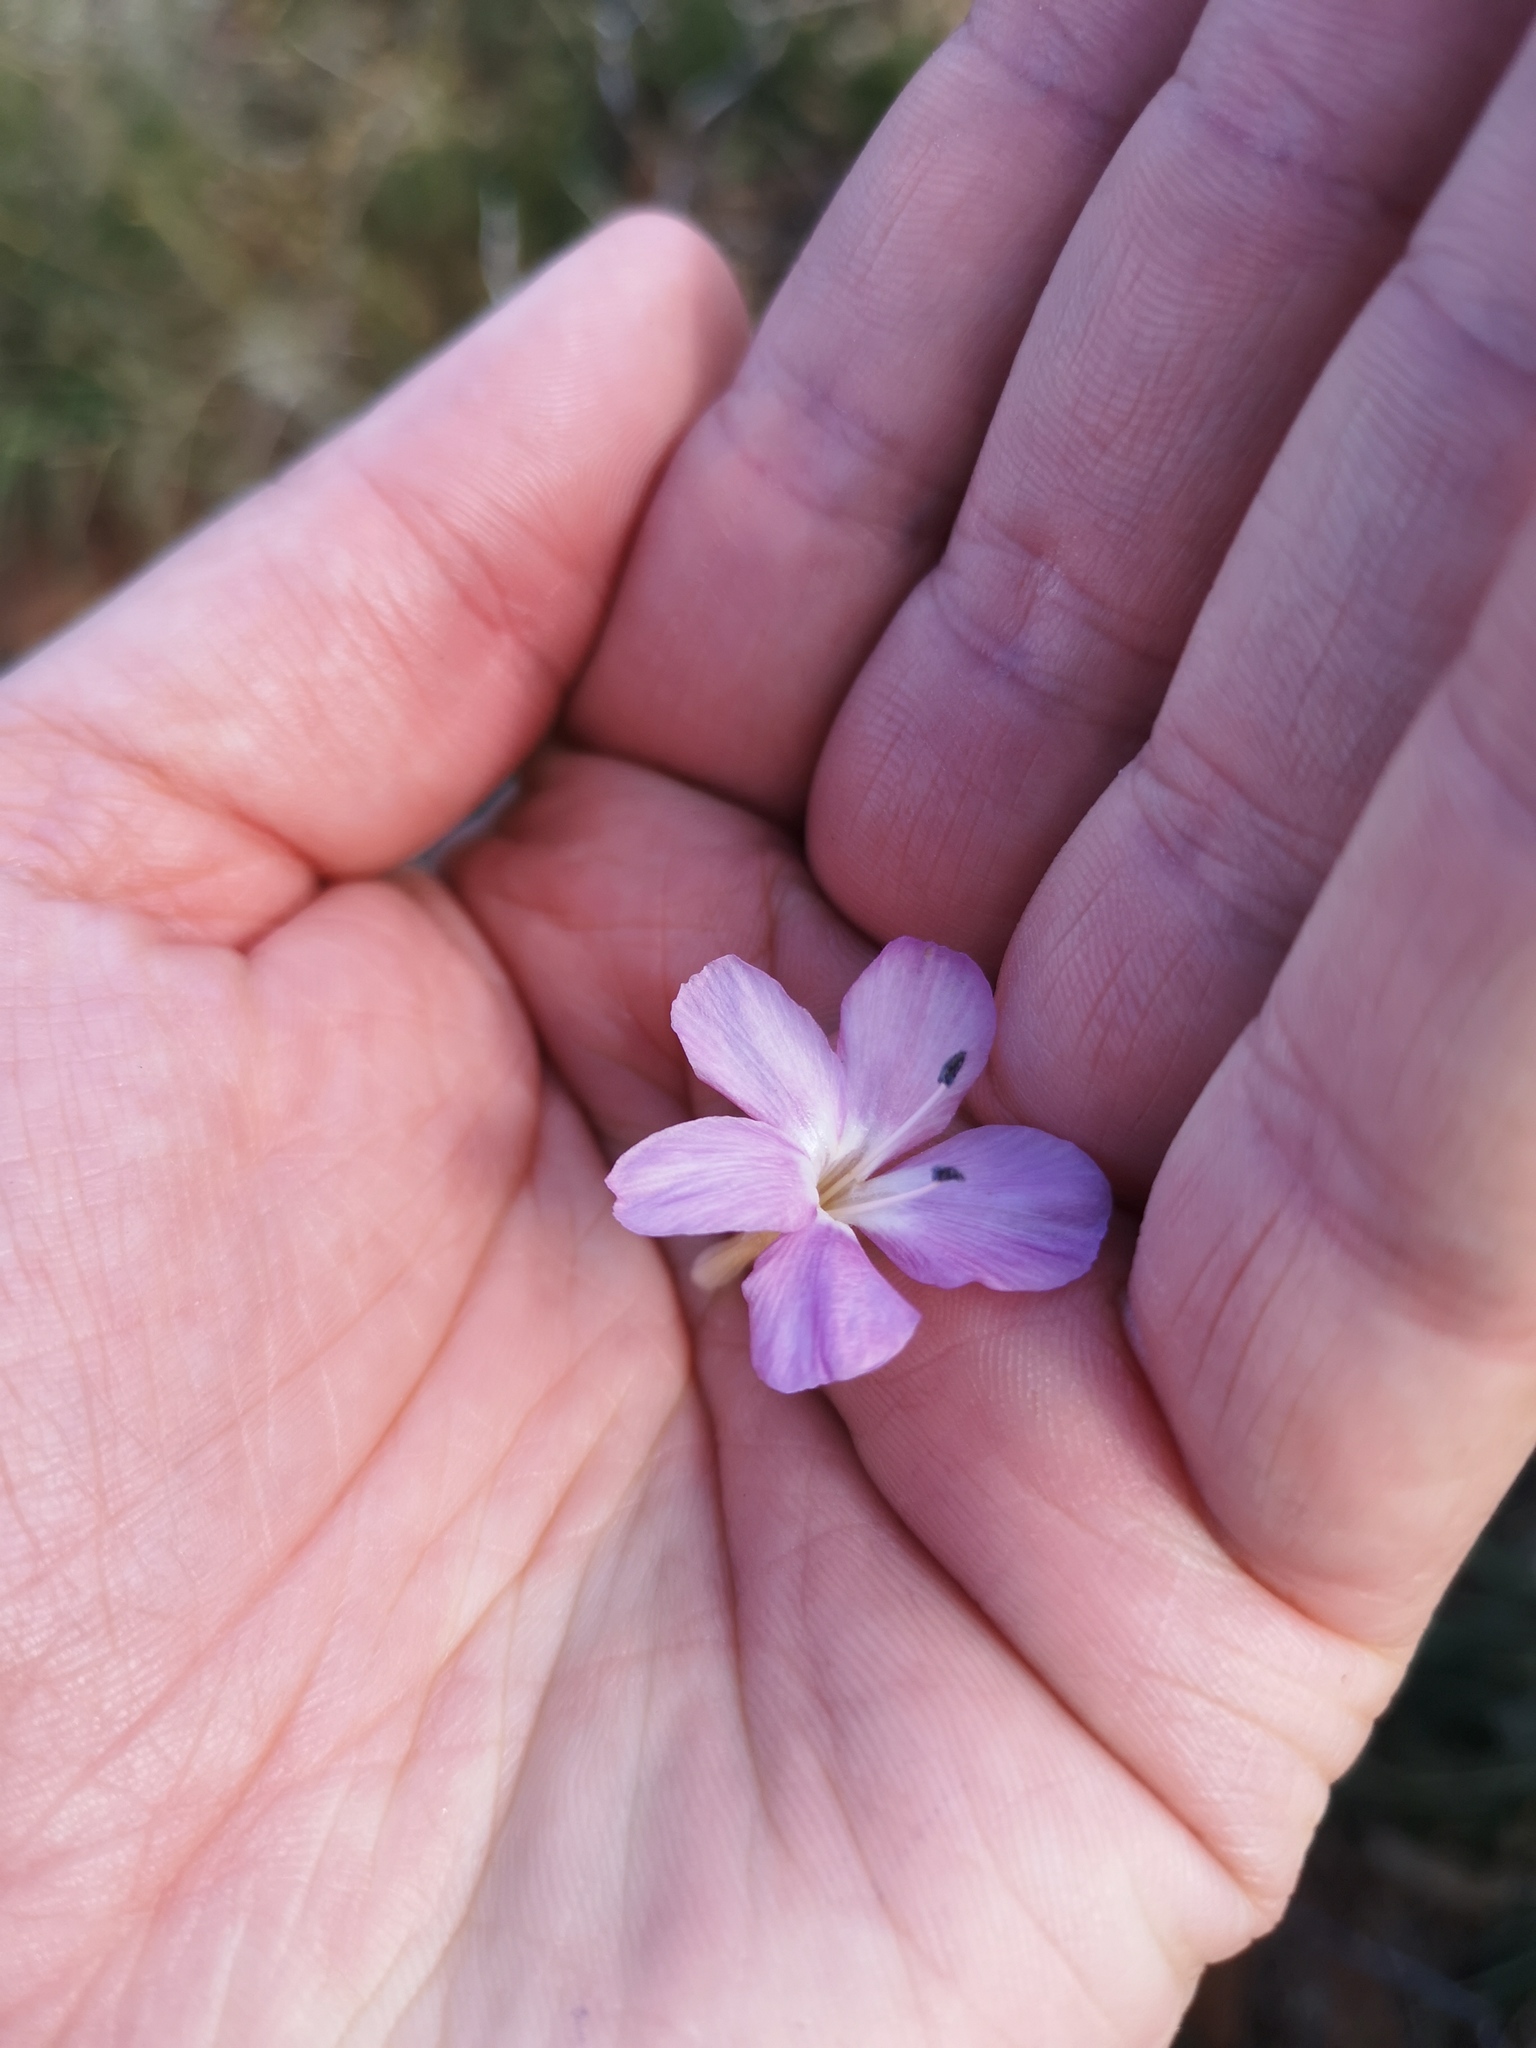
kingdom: Plantae
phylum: Tracheophyta
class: Magnoliopsida
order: Lamiales
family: Acanthaceae
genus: Barleria
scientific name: Barleria rigida
